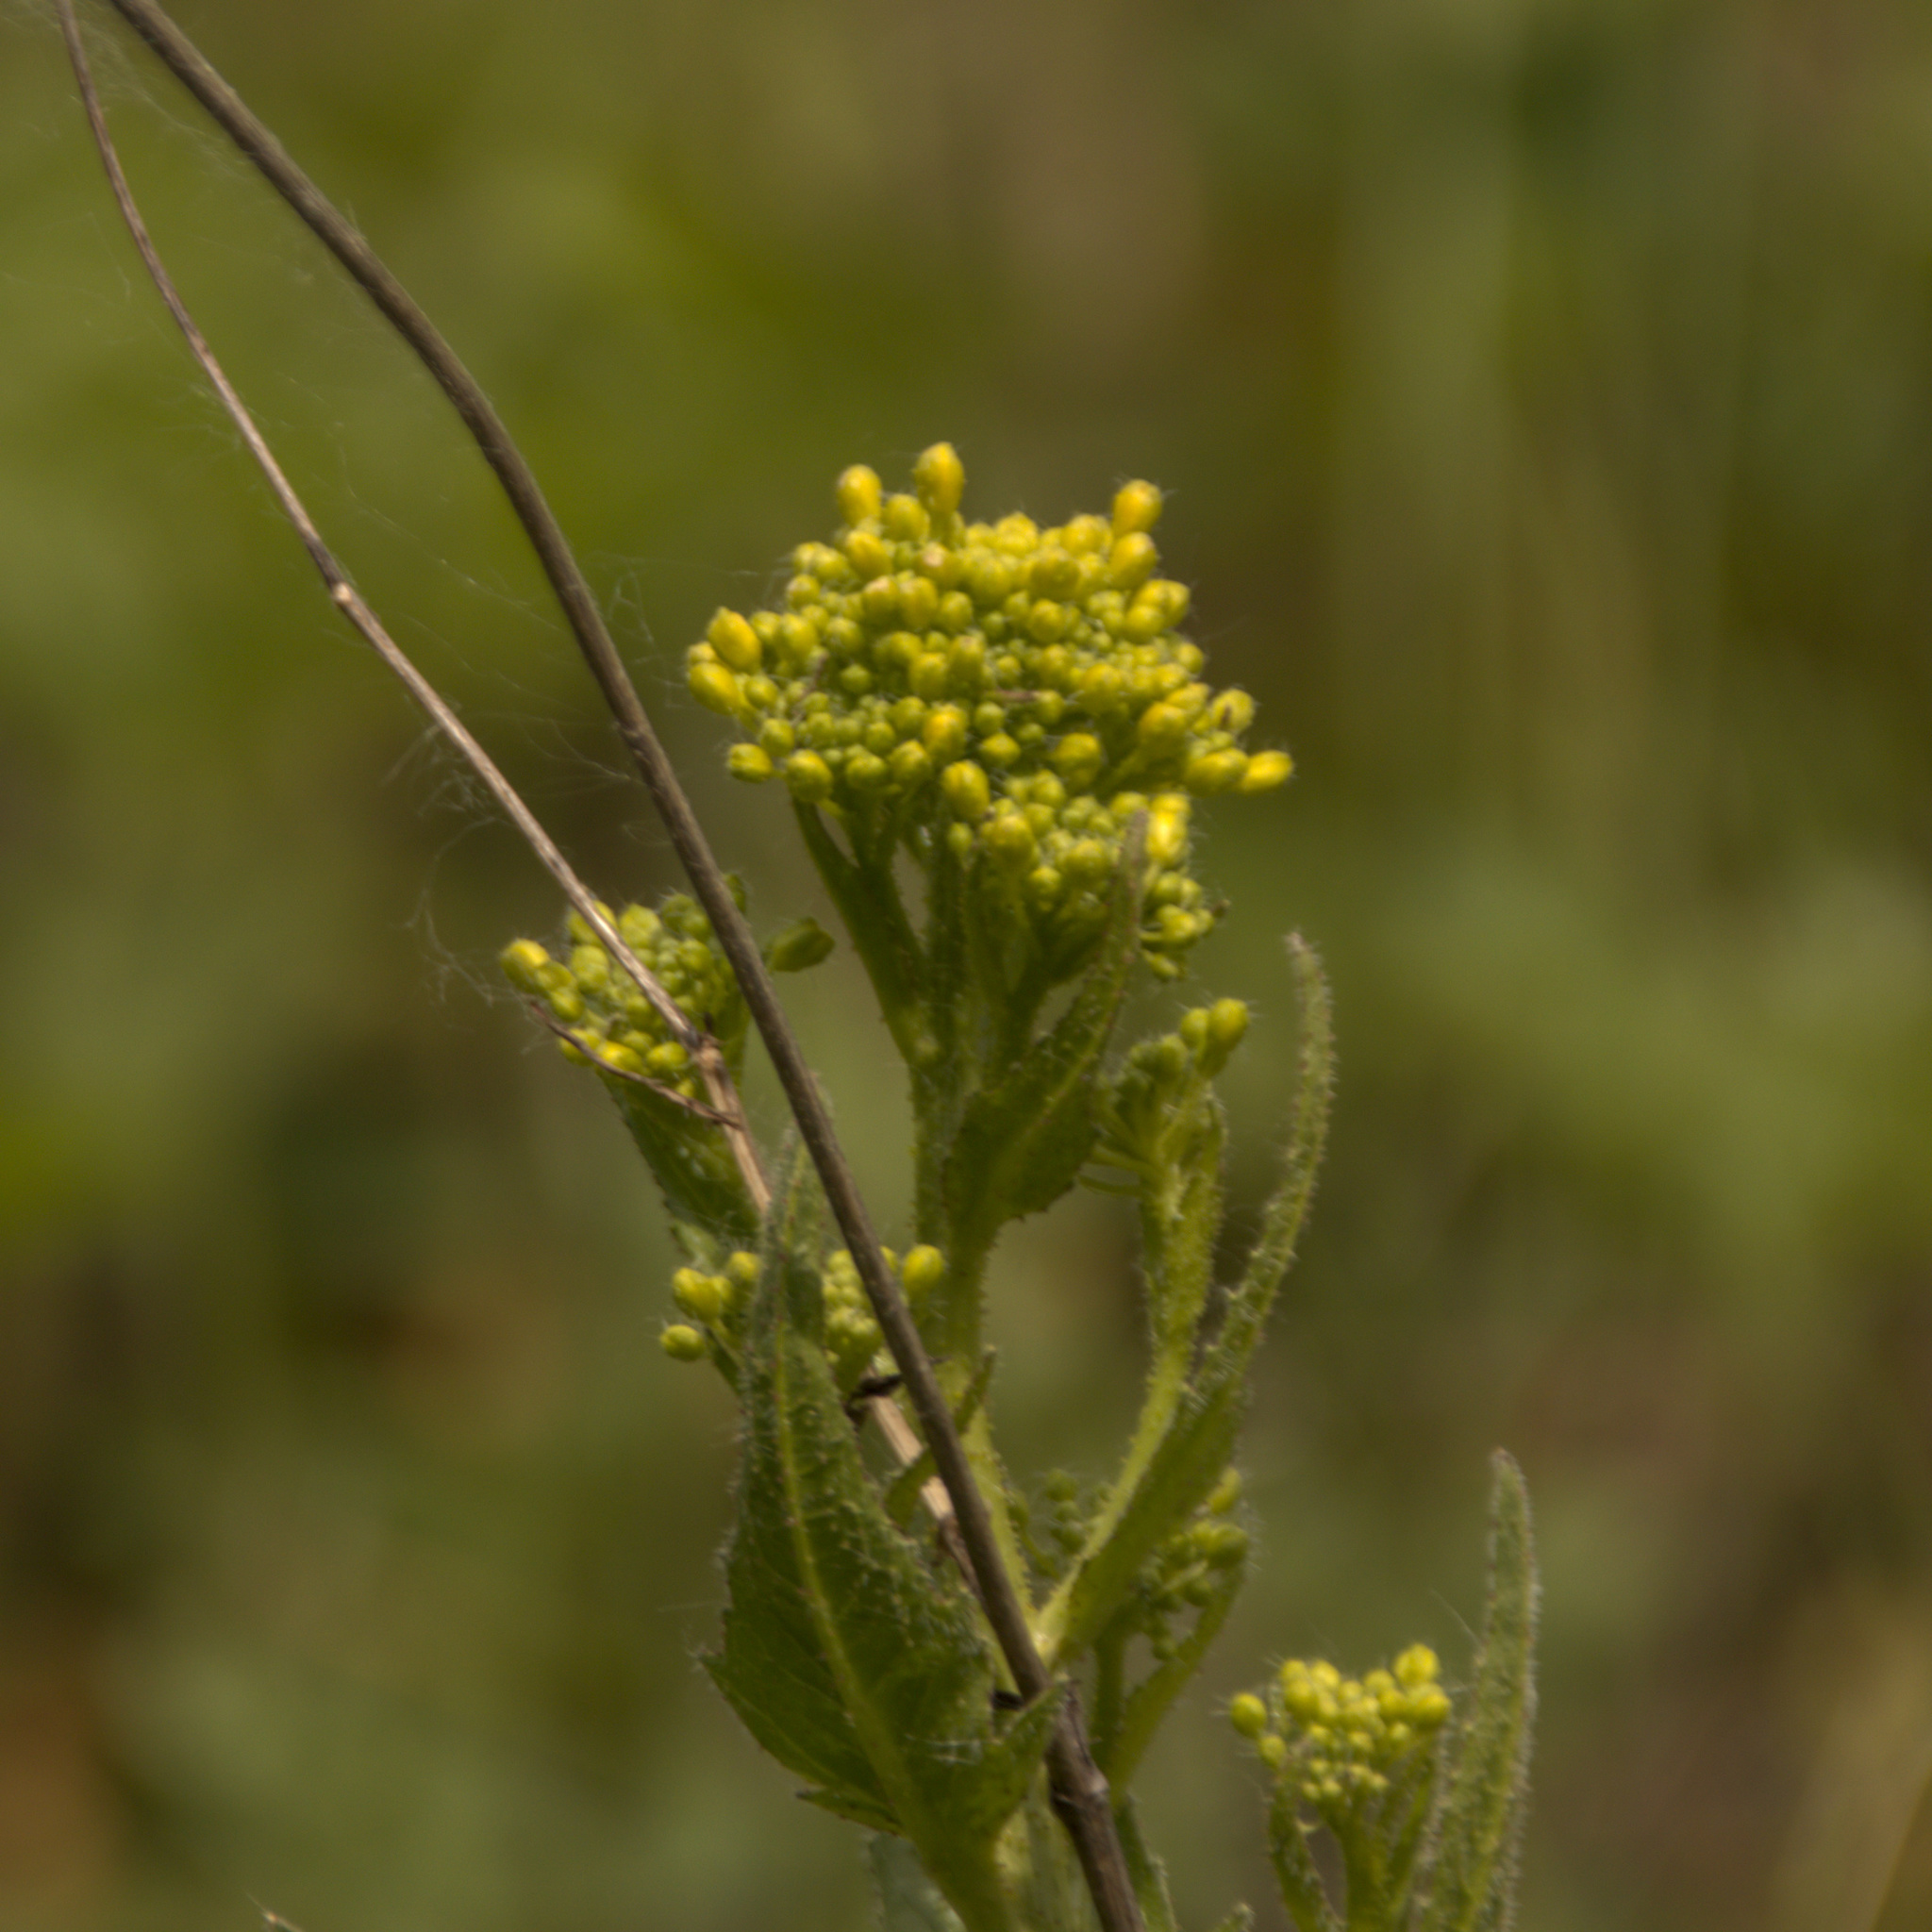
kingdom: Plantae
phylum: Tracheophyta
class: Magnoliopsida
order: Brassicales
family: Brassicaceae
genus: Bunias
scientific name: Bunias orientalis
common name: Warty-cabbage
